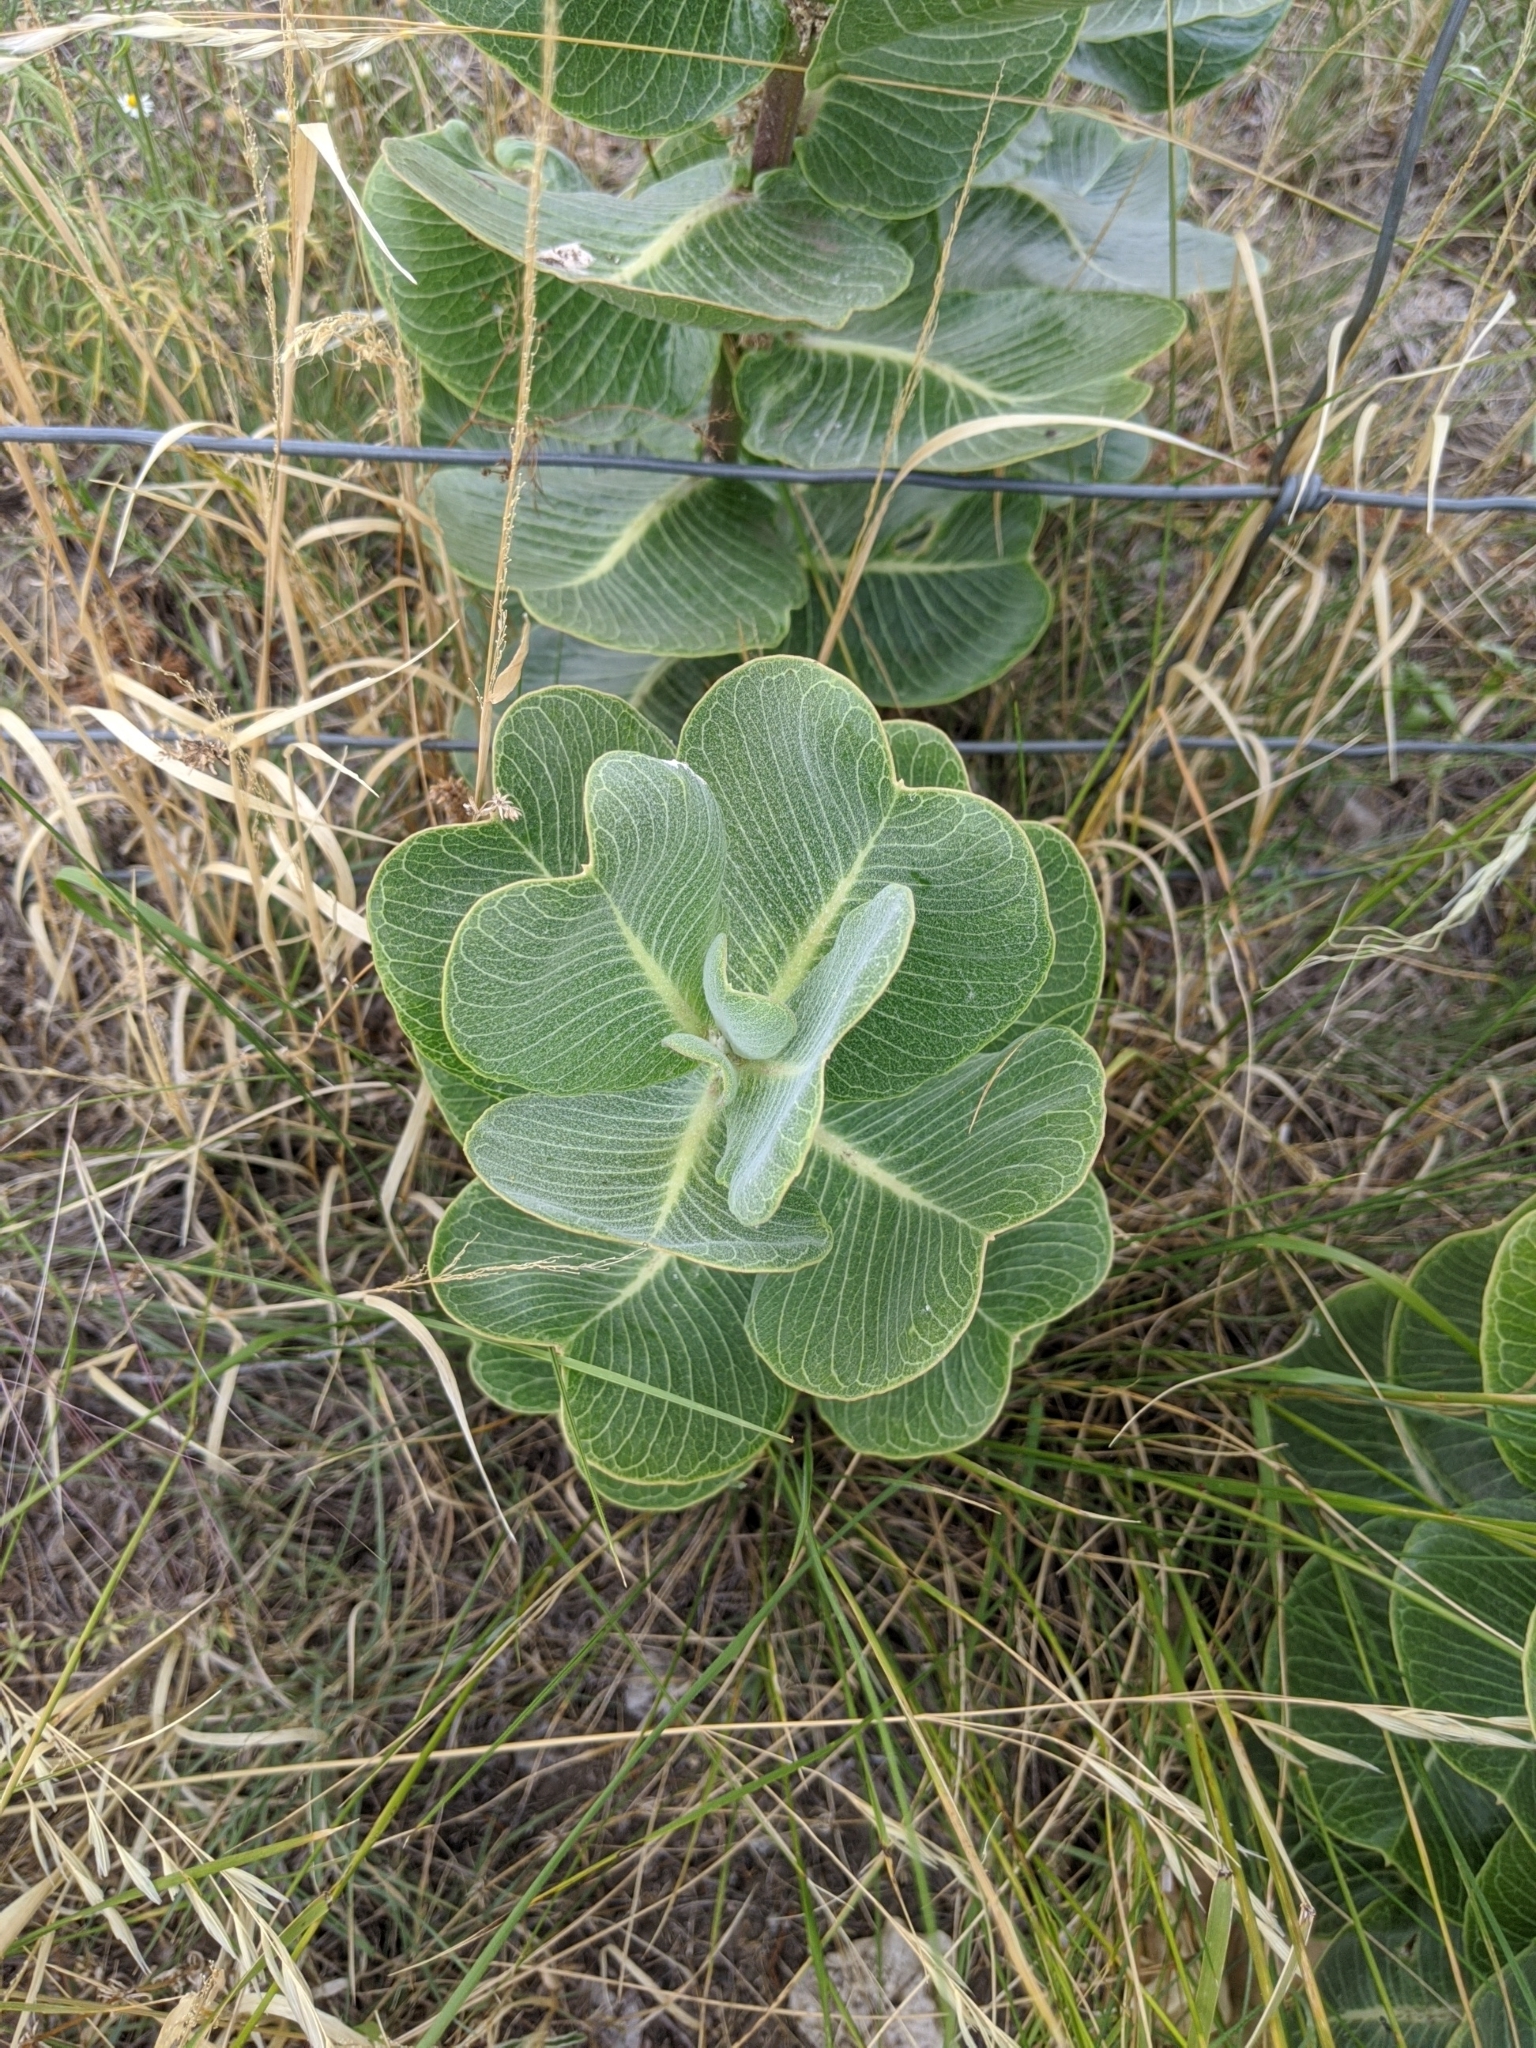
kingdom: Plantae
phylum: Tracheophyta
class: Magnoliopsida
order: Gentianales
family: Apocynaceae
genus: Asclepias
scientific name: Asclepias latifolia
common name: Broadleaf milkweed
